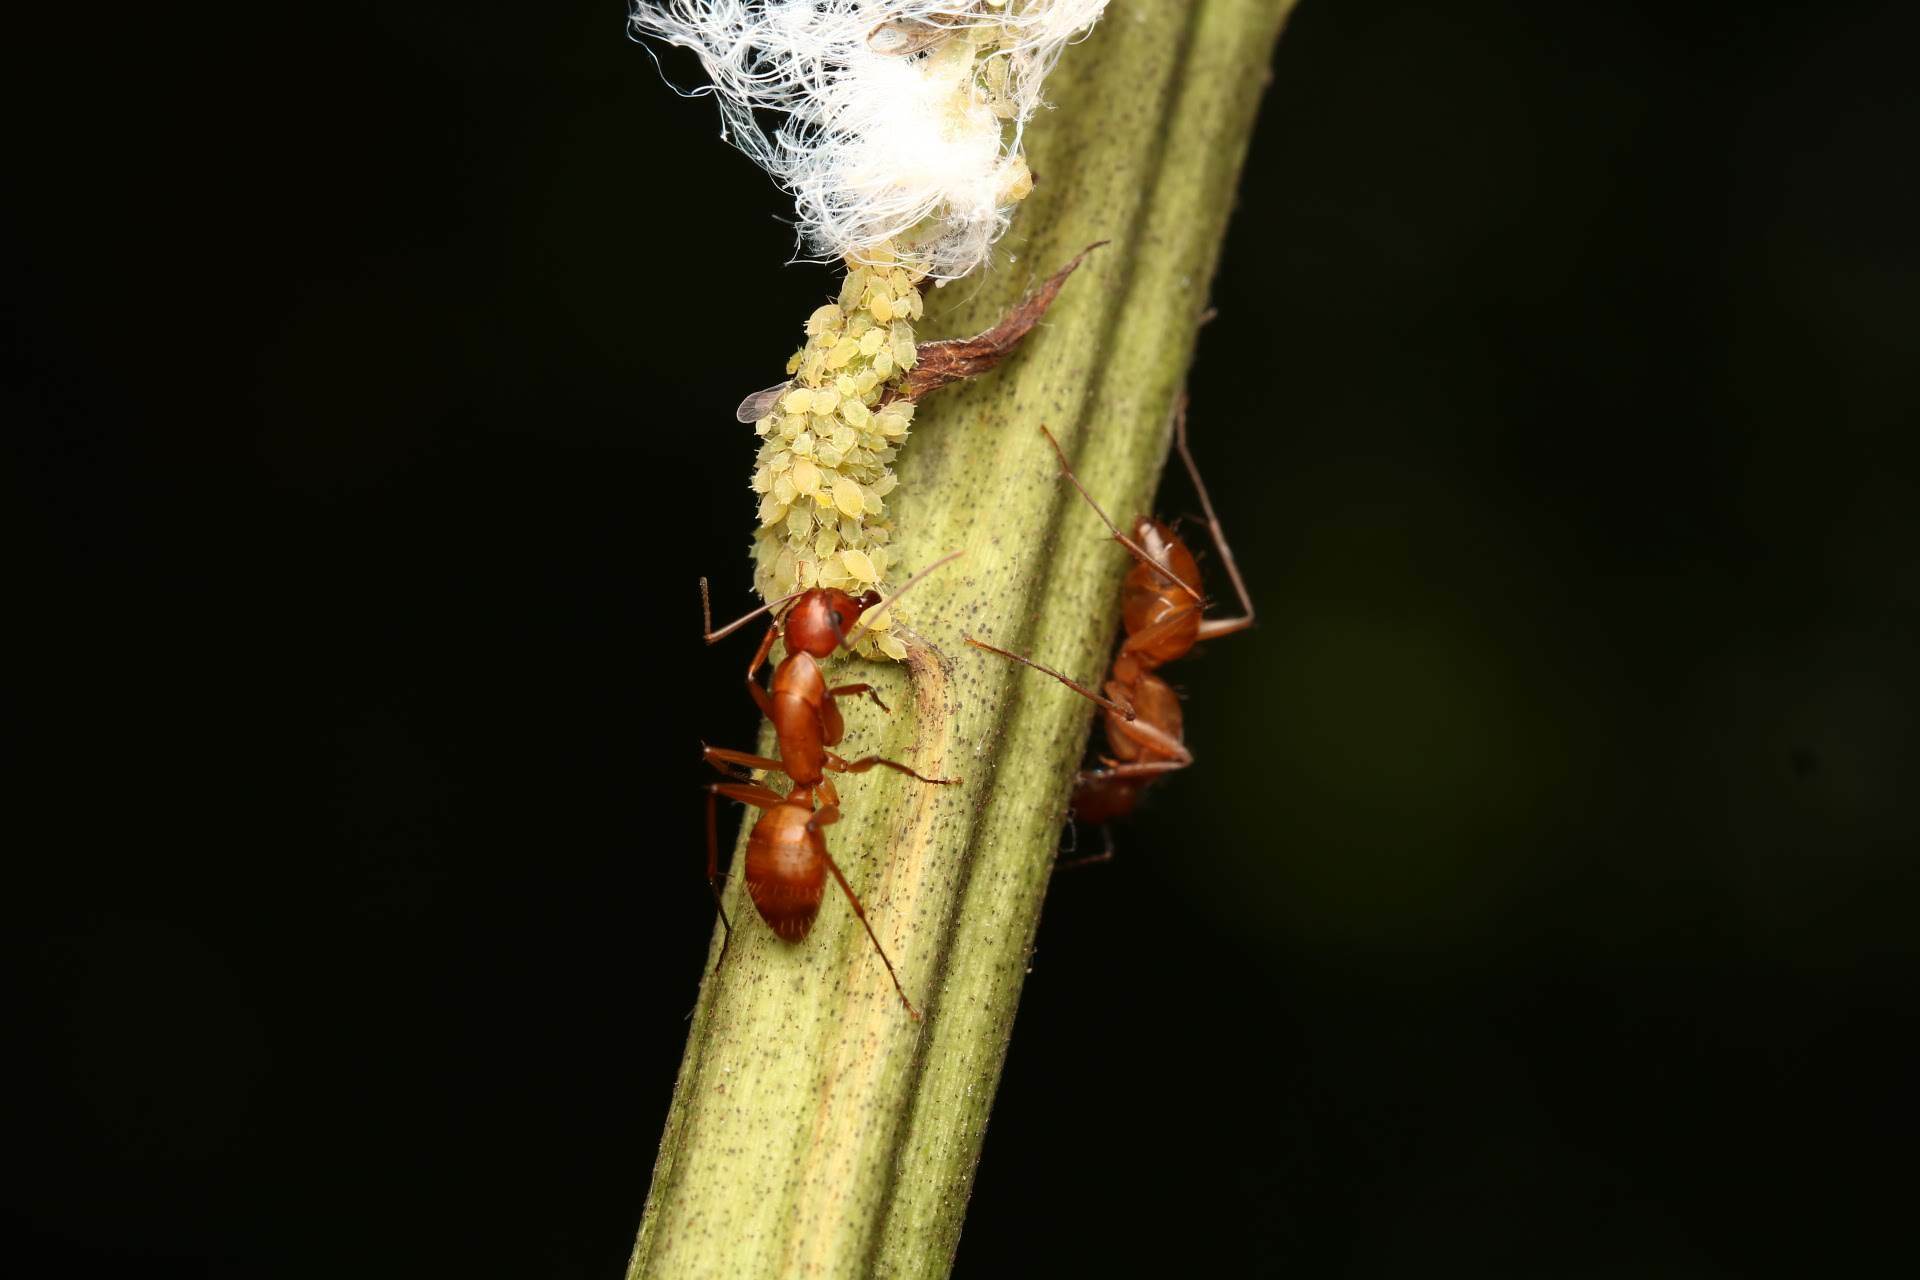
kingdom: Animalia
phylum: Arthropoda
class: Insecta
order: Hymenoptera
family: Formicidae
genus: Camponotus
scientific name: Camponotus castaneus
